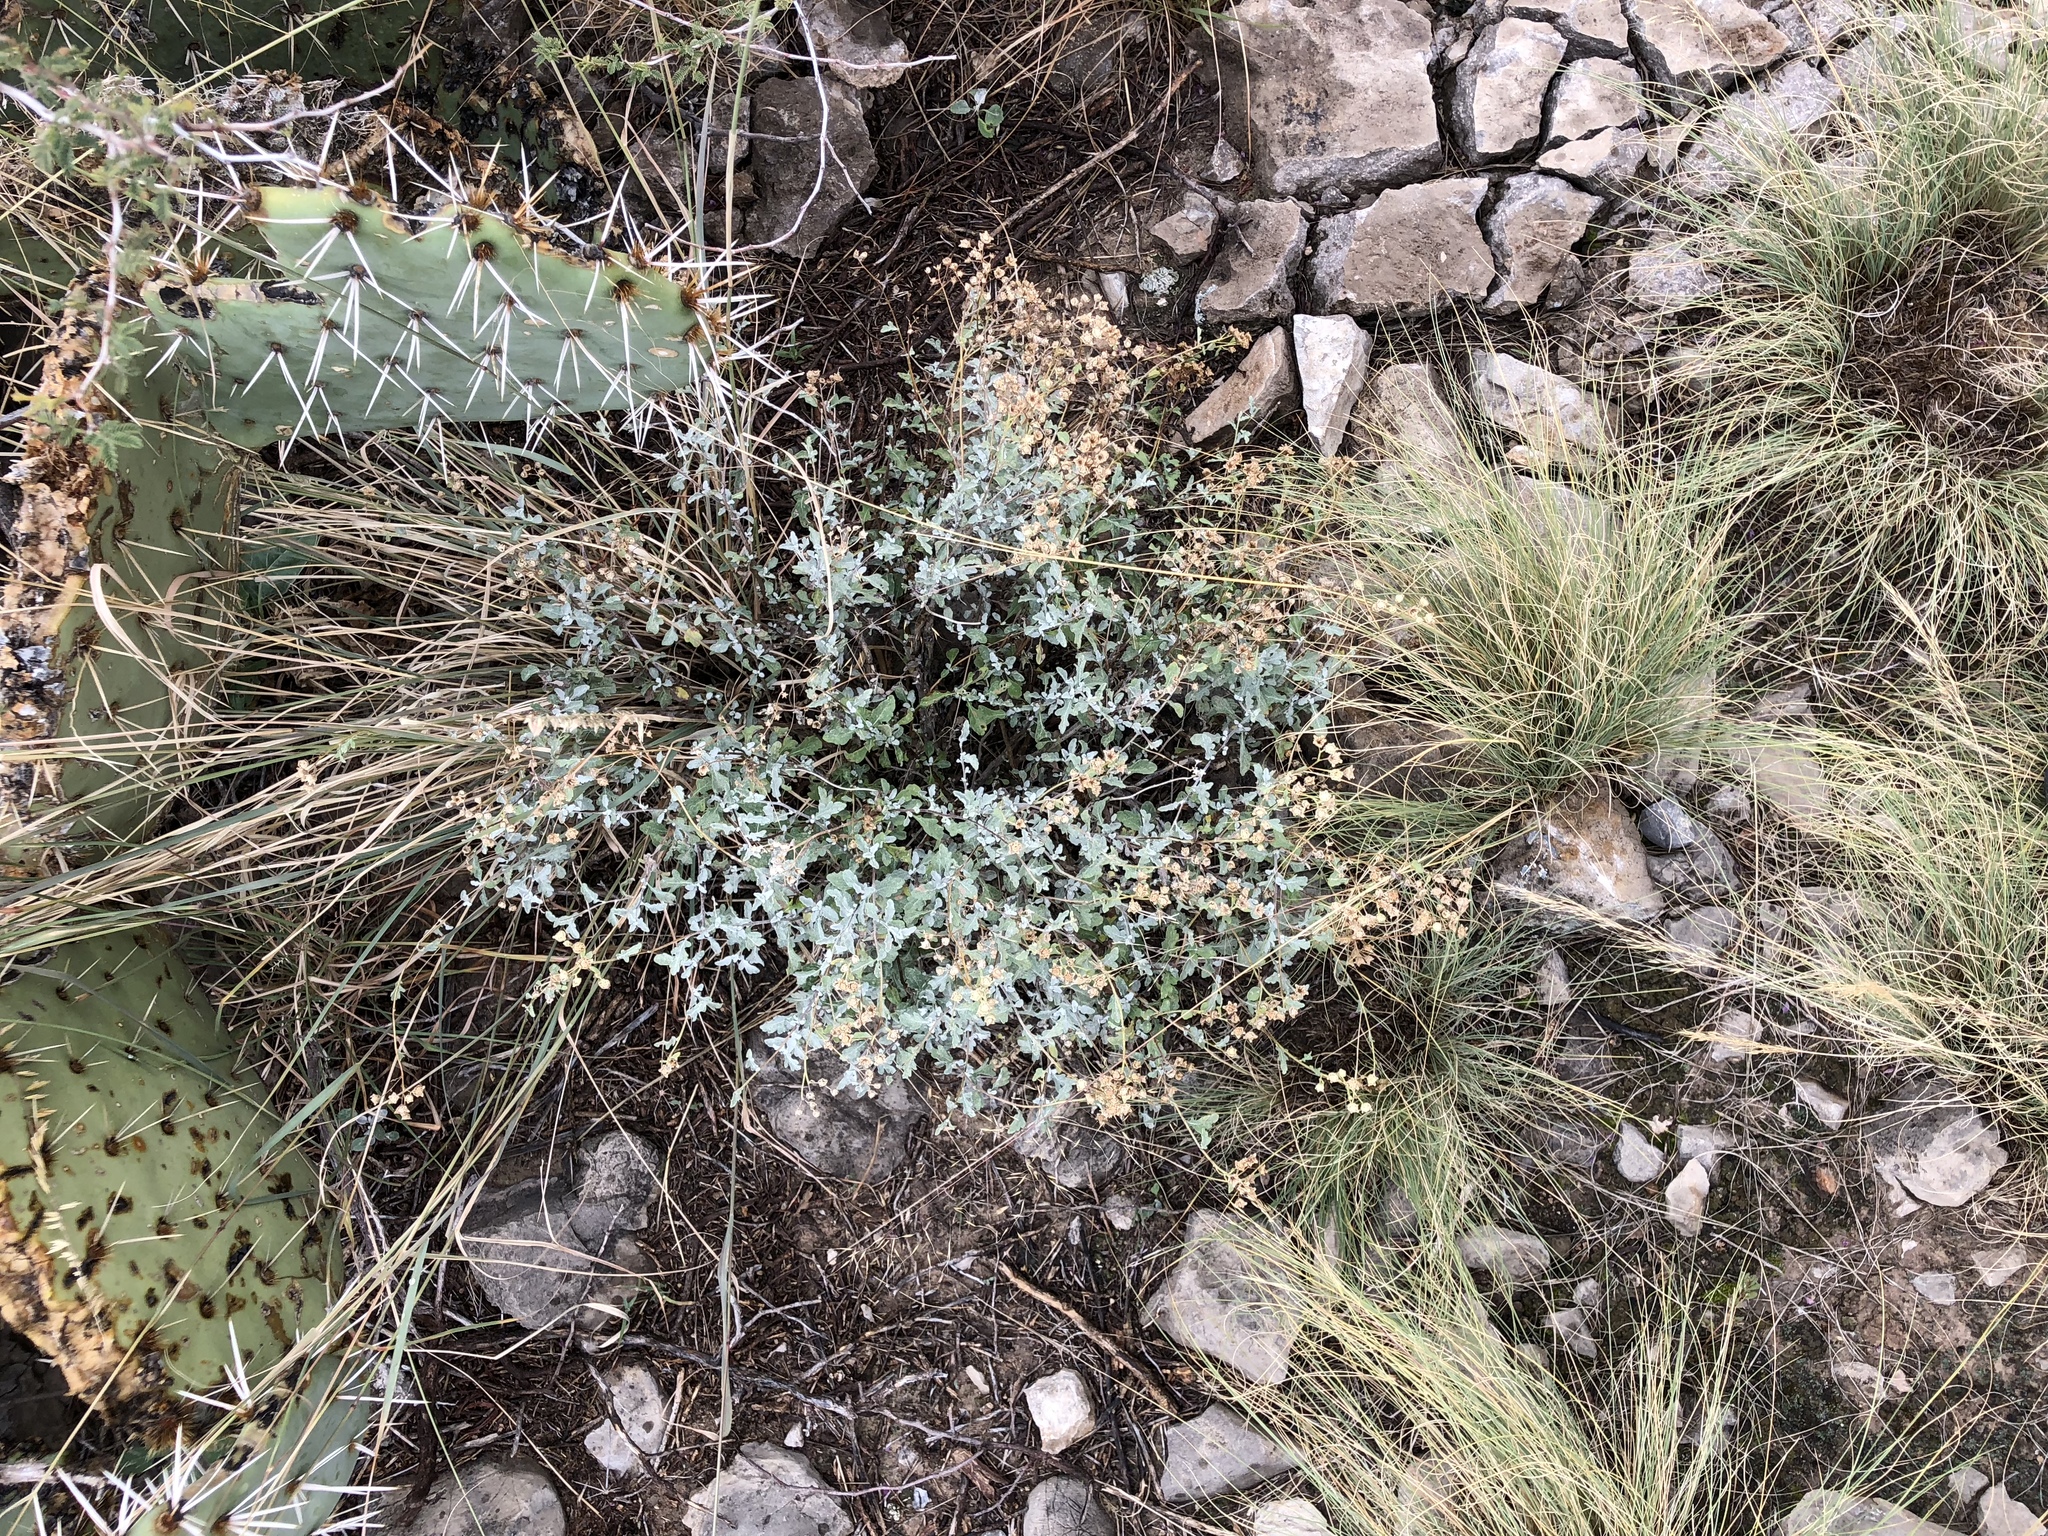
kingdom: Plantae
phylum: Tracheophyta
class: Magnoliopsida
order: Asterales
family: Asteraceae
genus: Parthenium
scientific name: Parthenium incanum
